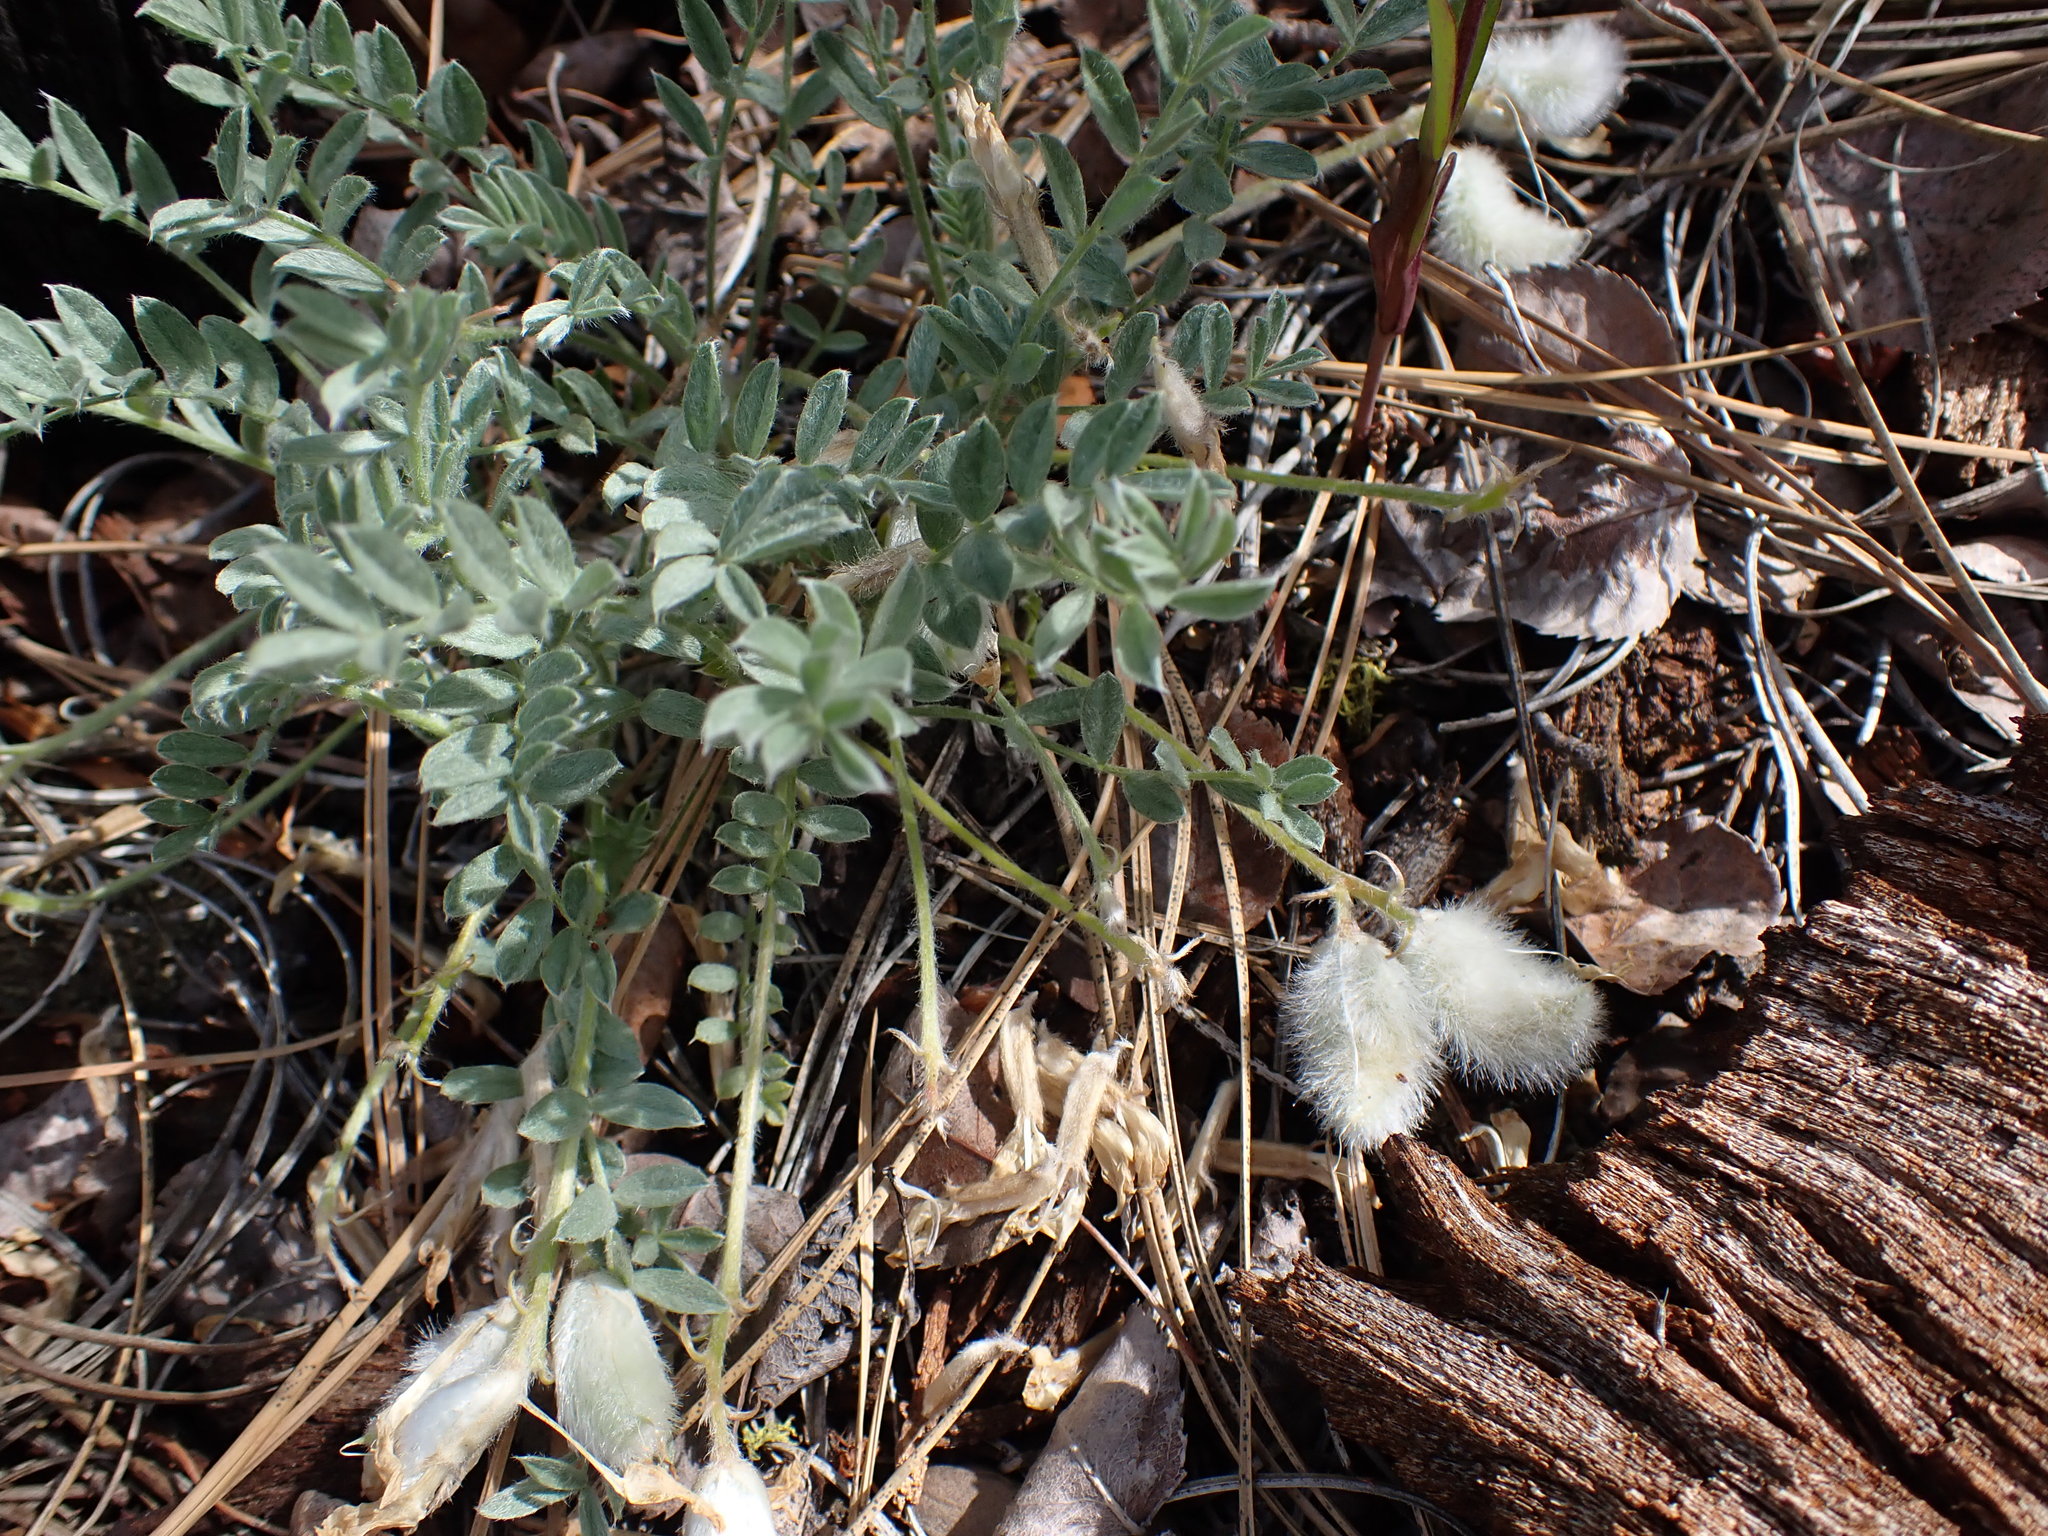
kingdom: Plantae
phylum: Tracheophyta
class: Magnoliopsida
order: Fabales
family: Fabaceae
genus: Astragalus
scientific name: Astragalus purshii
